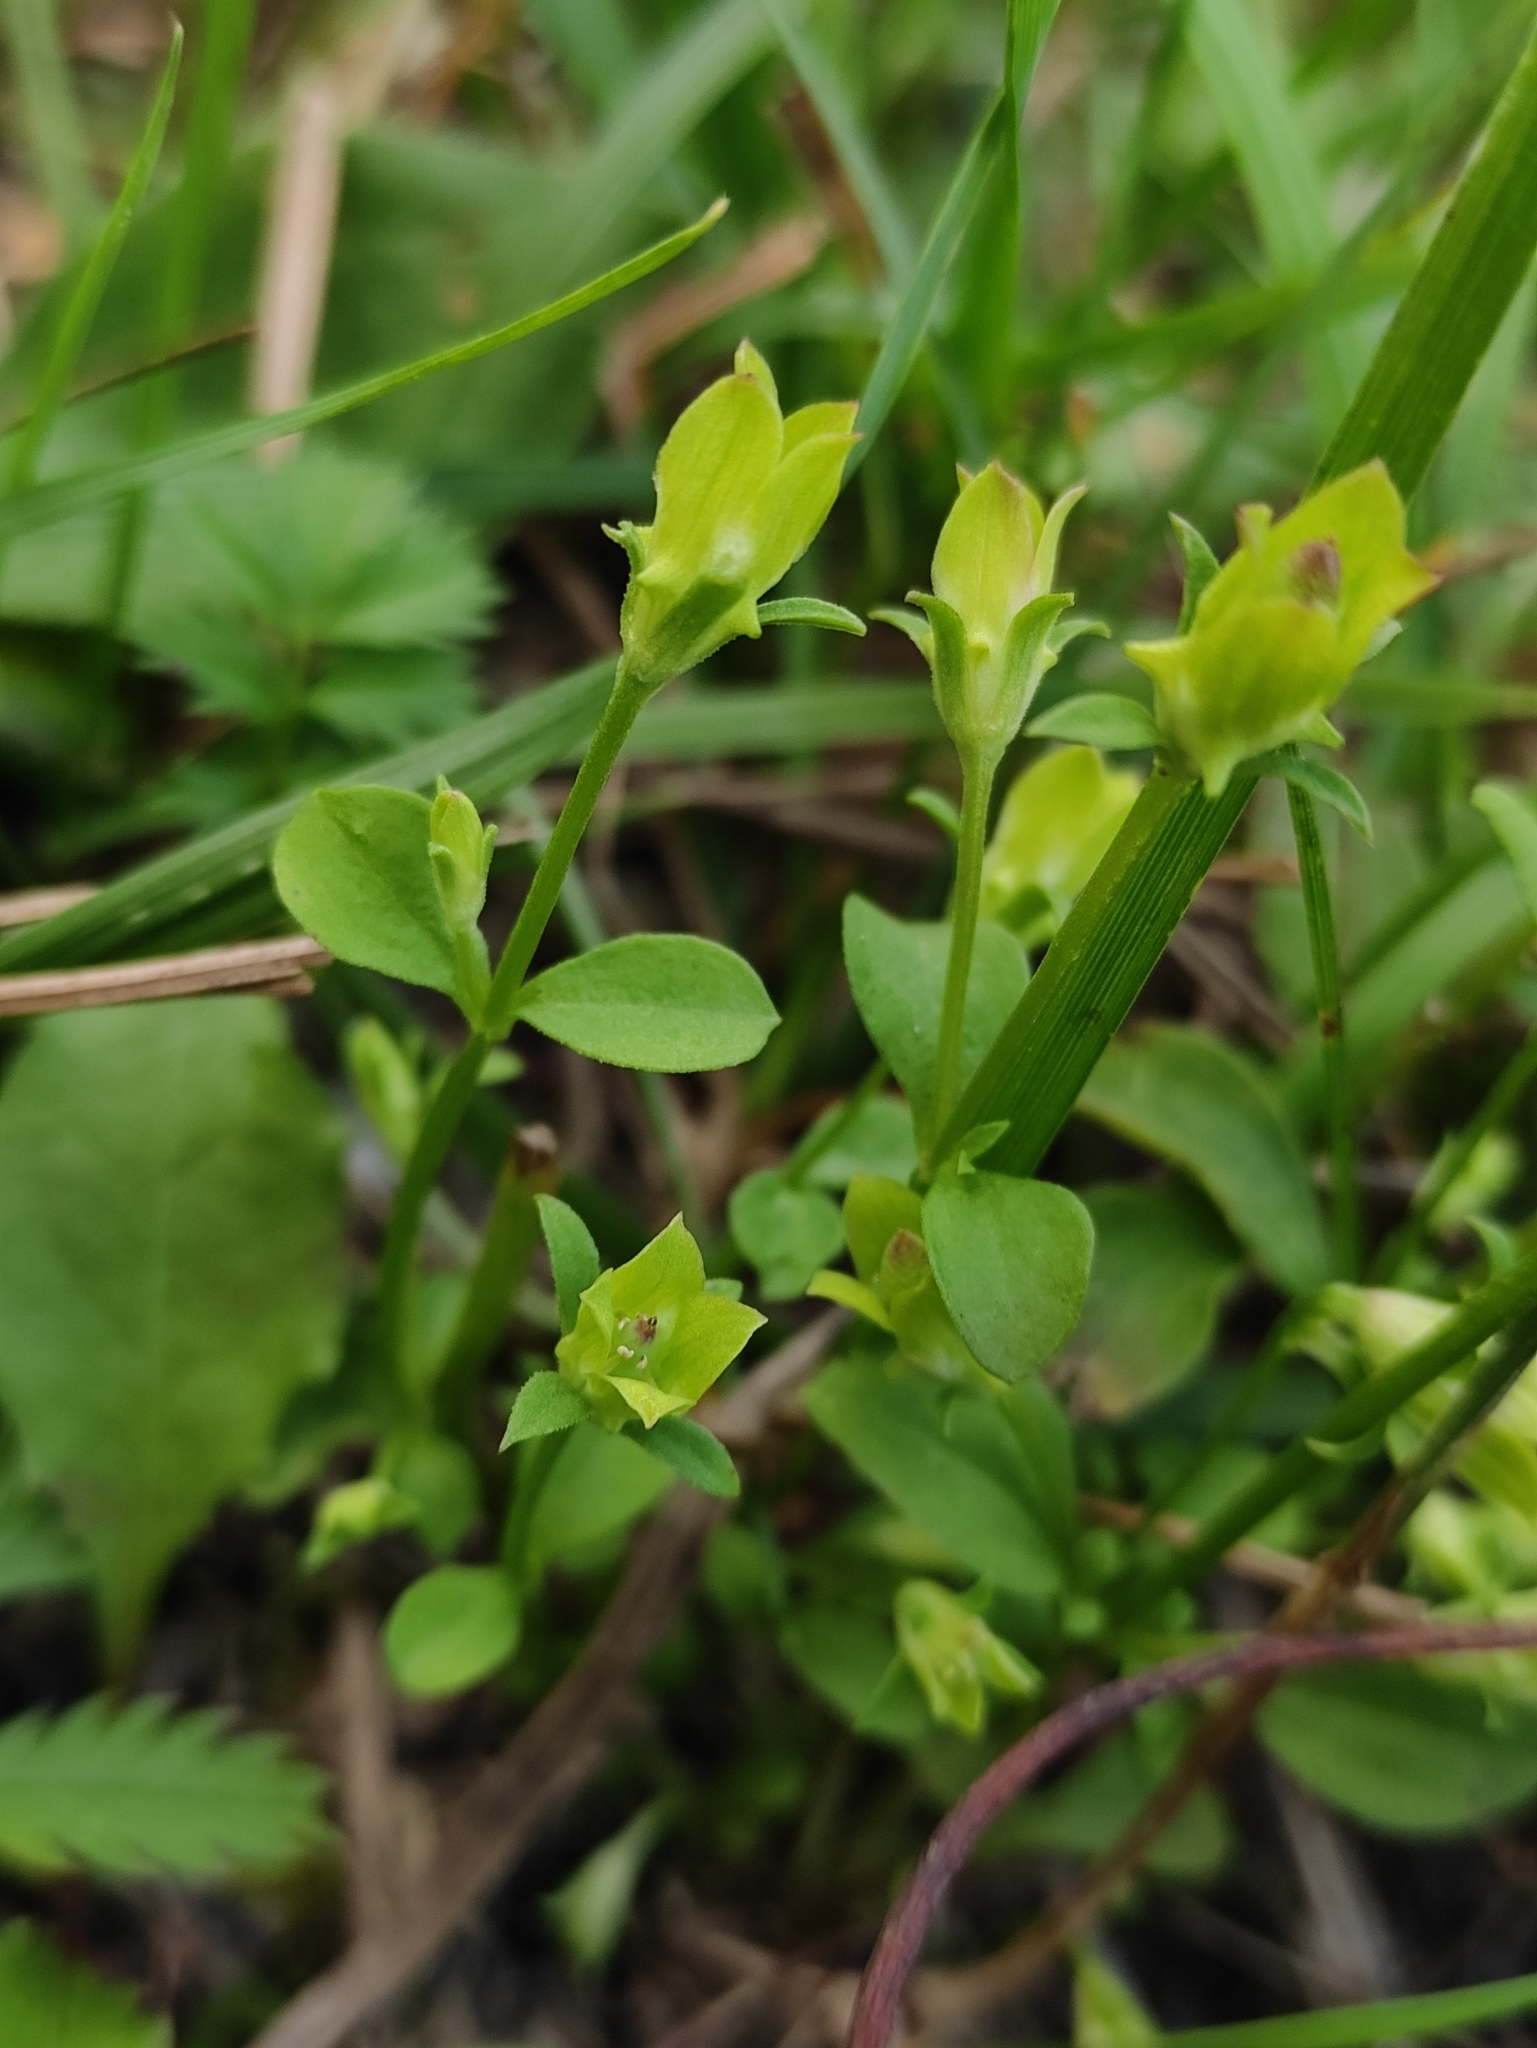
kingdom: Plantae
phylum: Tracheophyta
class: Magnoliopsida
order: Gentianales
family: Gentianaceae
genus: Halenia
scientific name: Halenia corniculata
